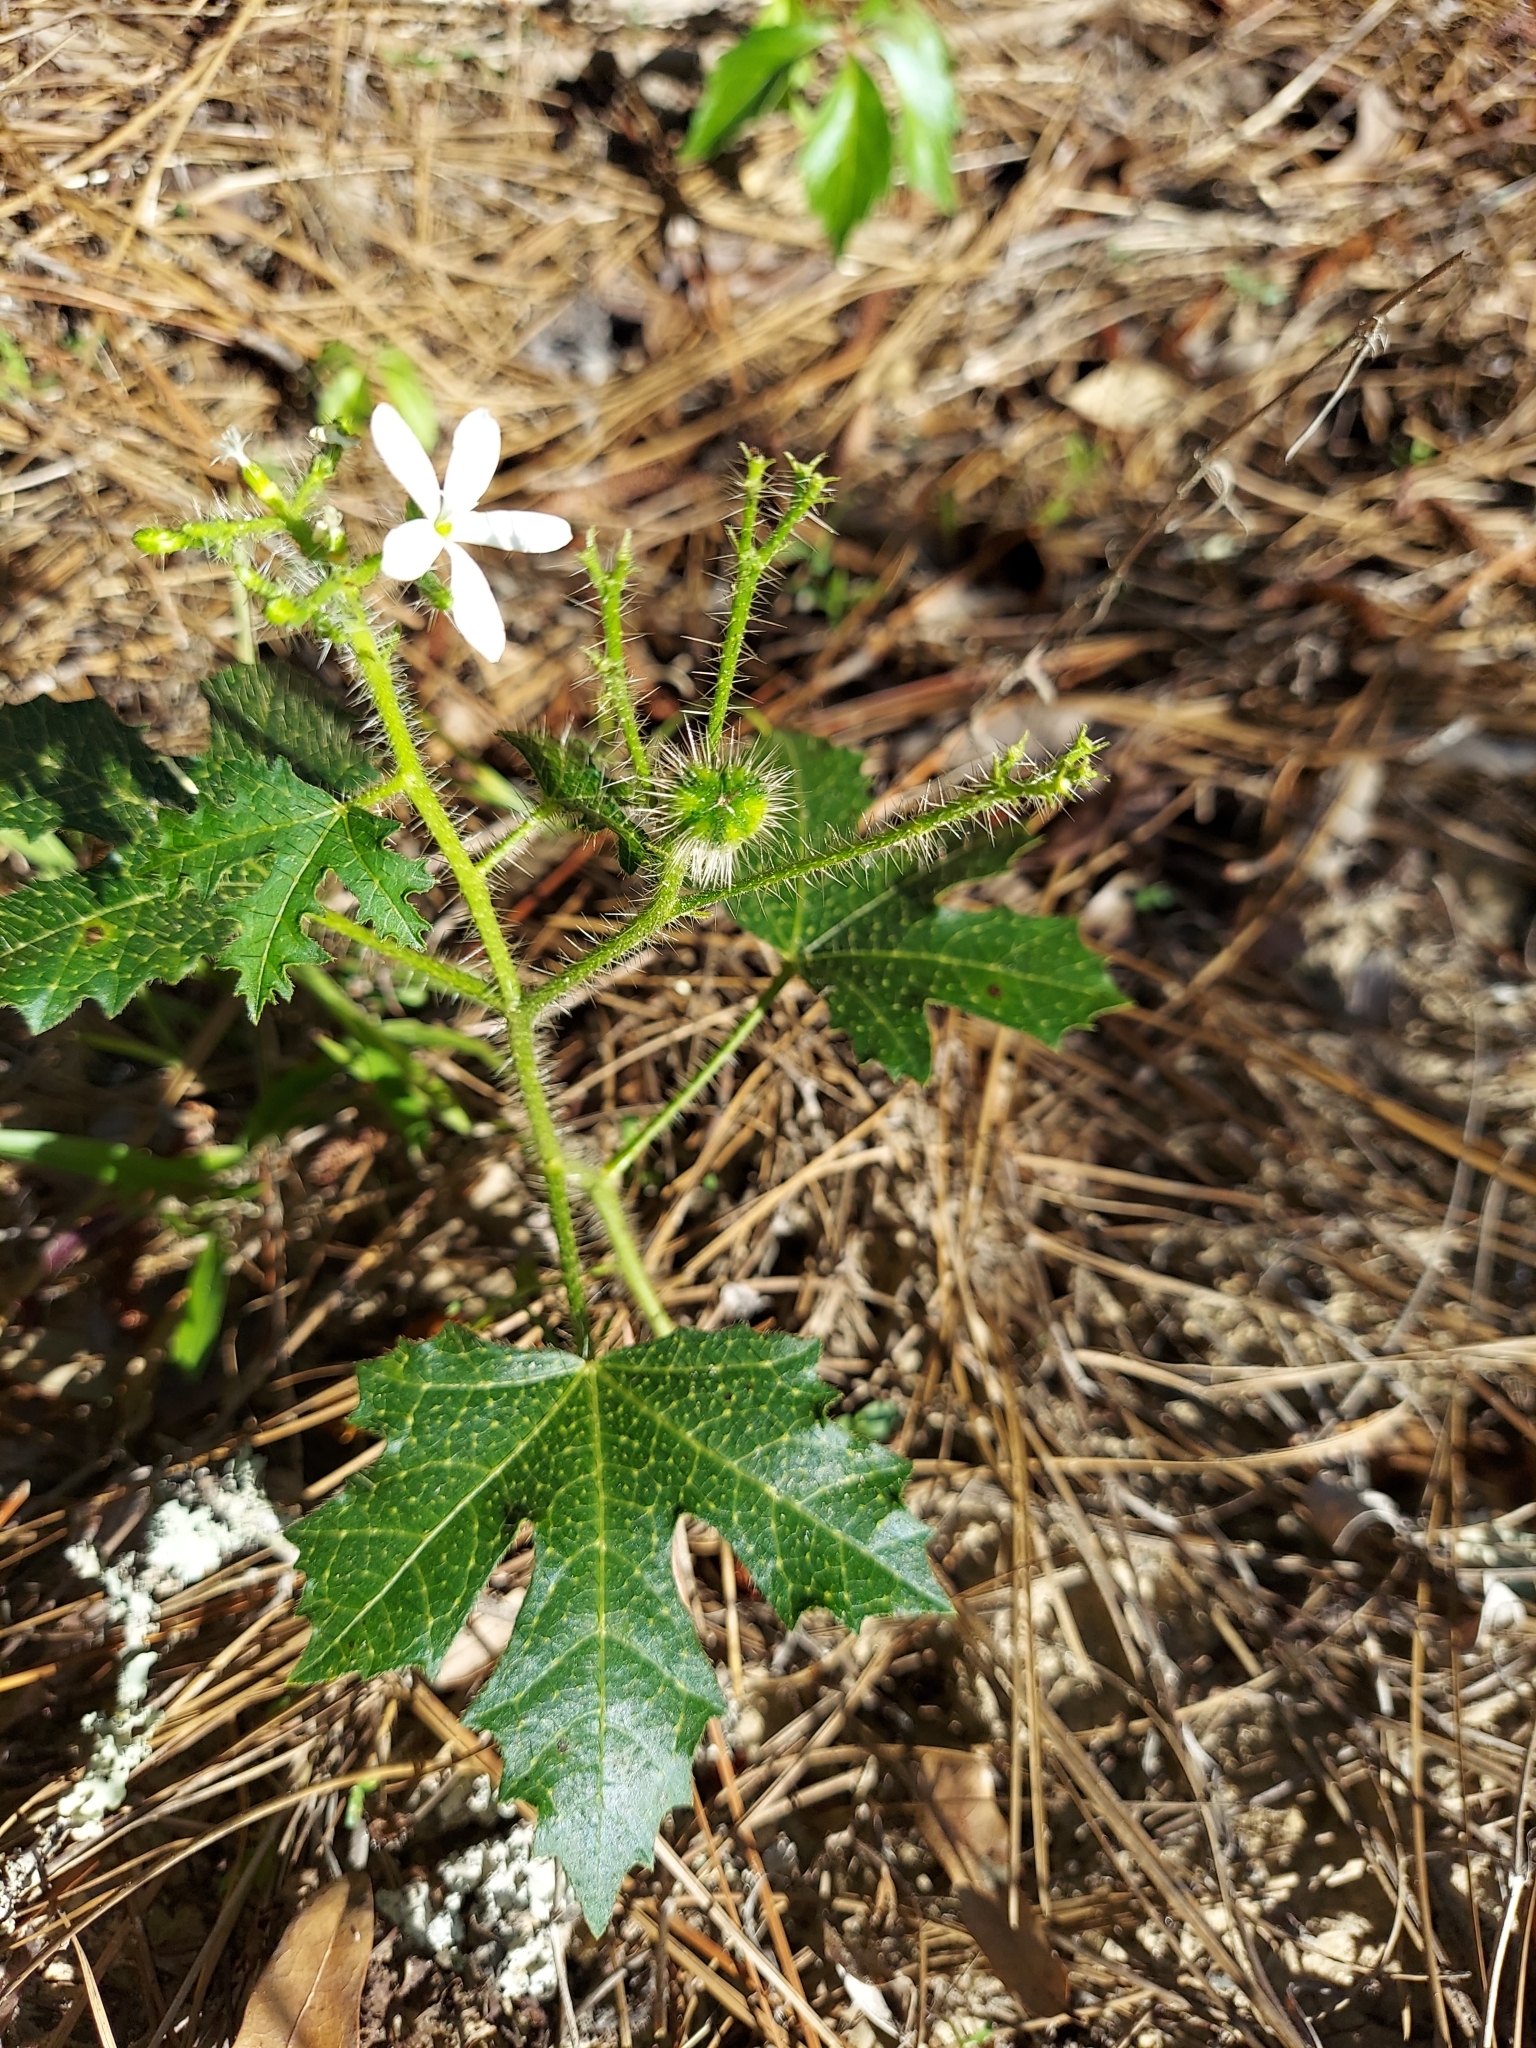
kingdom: Plantae
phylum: Tracheophyta
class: Magnoliopsida
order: Malpighiales
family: Euphorbiaceae
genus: Cnidoscolus
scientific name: Cnidoscolus stimulosus
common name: Bull-nettle
